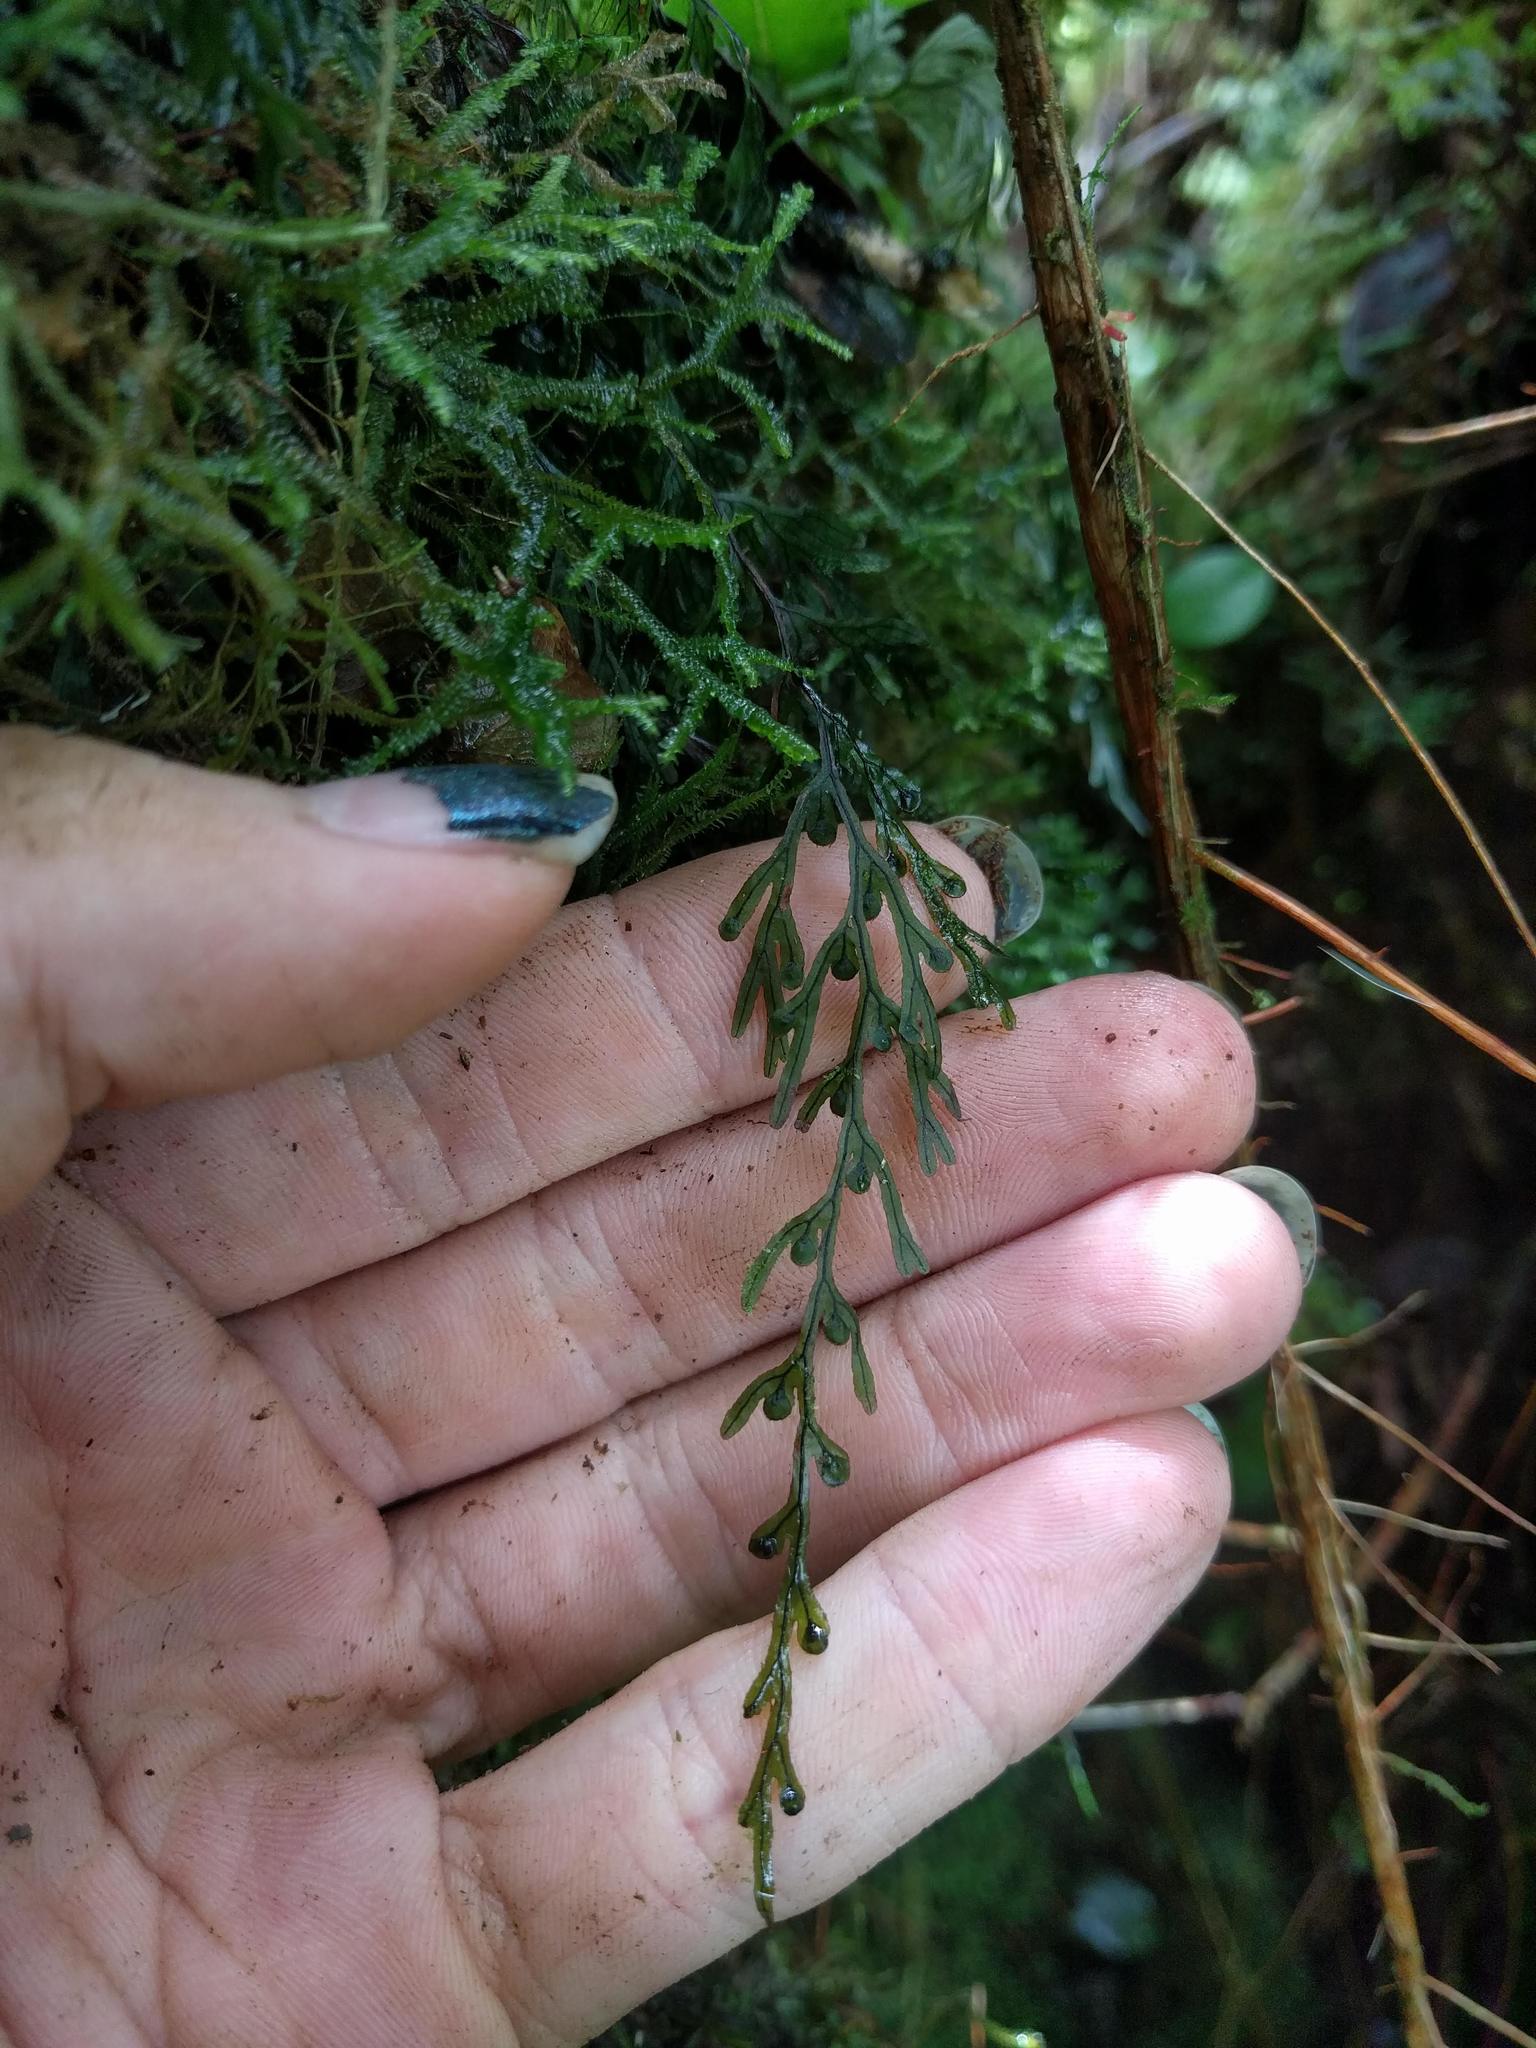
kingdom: Plantae
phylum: Tracheophyta
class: Polypodiopsida
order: Hymenophyllales
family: Hymenophyllaceae
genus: Hymenophyllum
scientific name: Hymenophyllum lanceolatum
